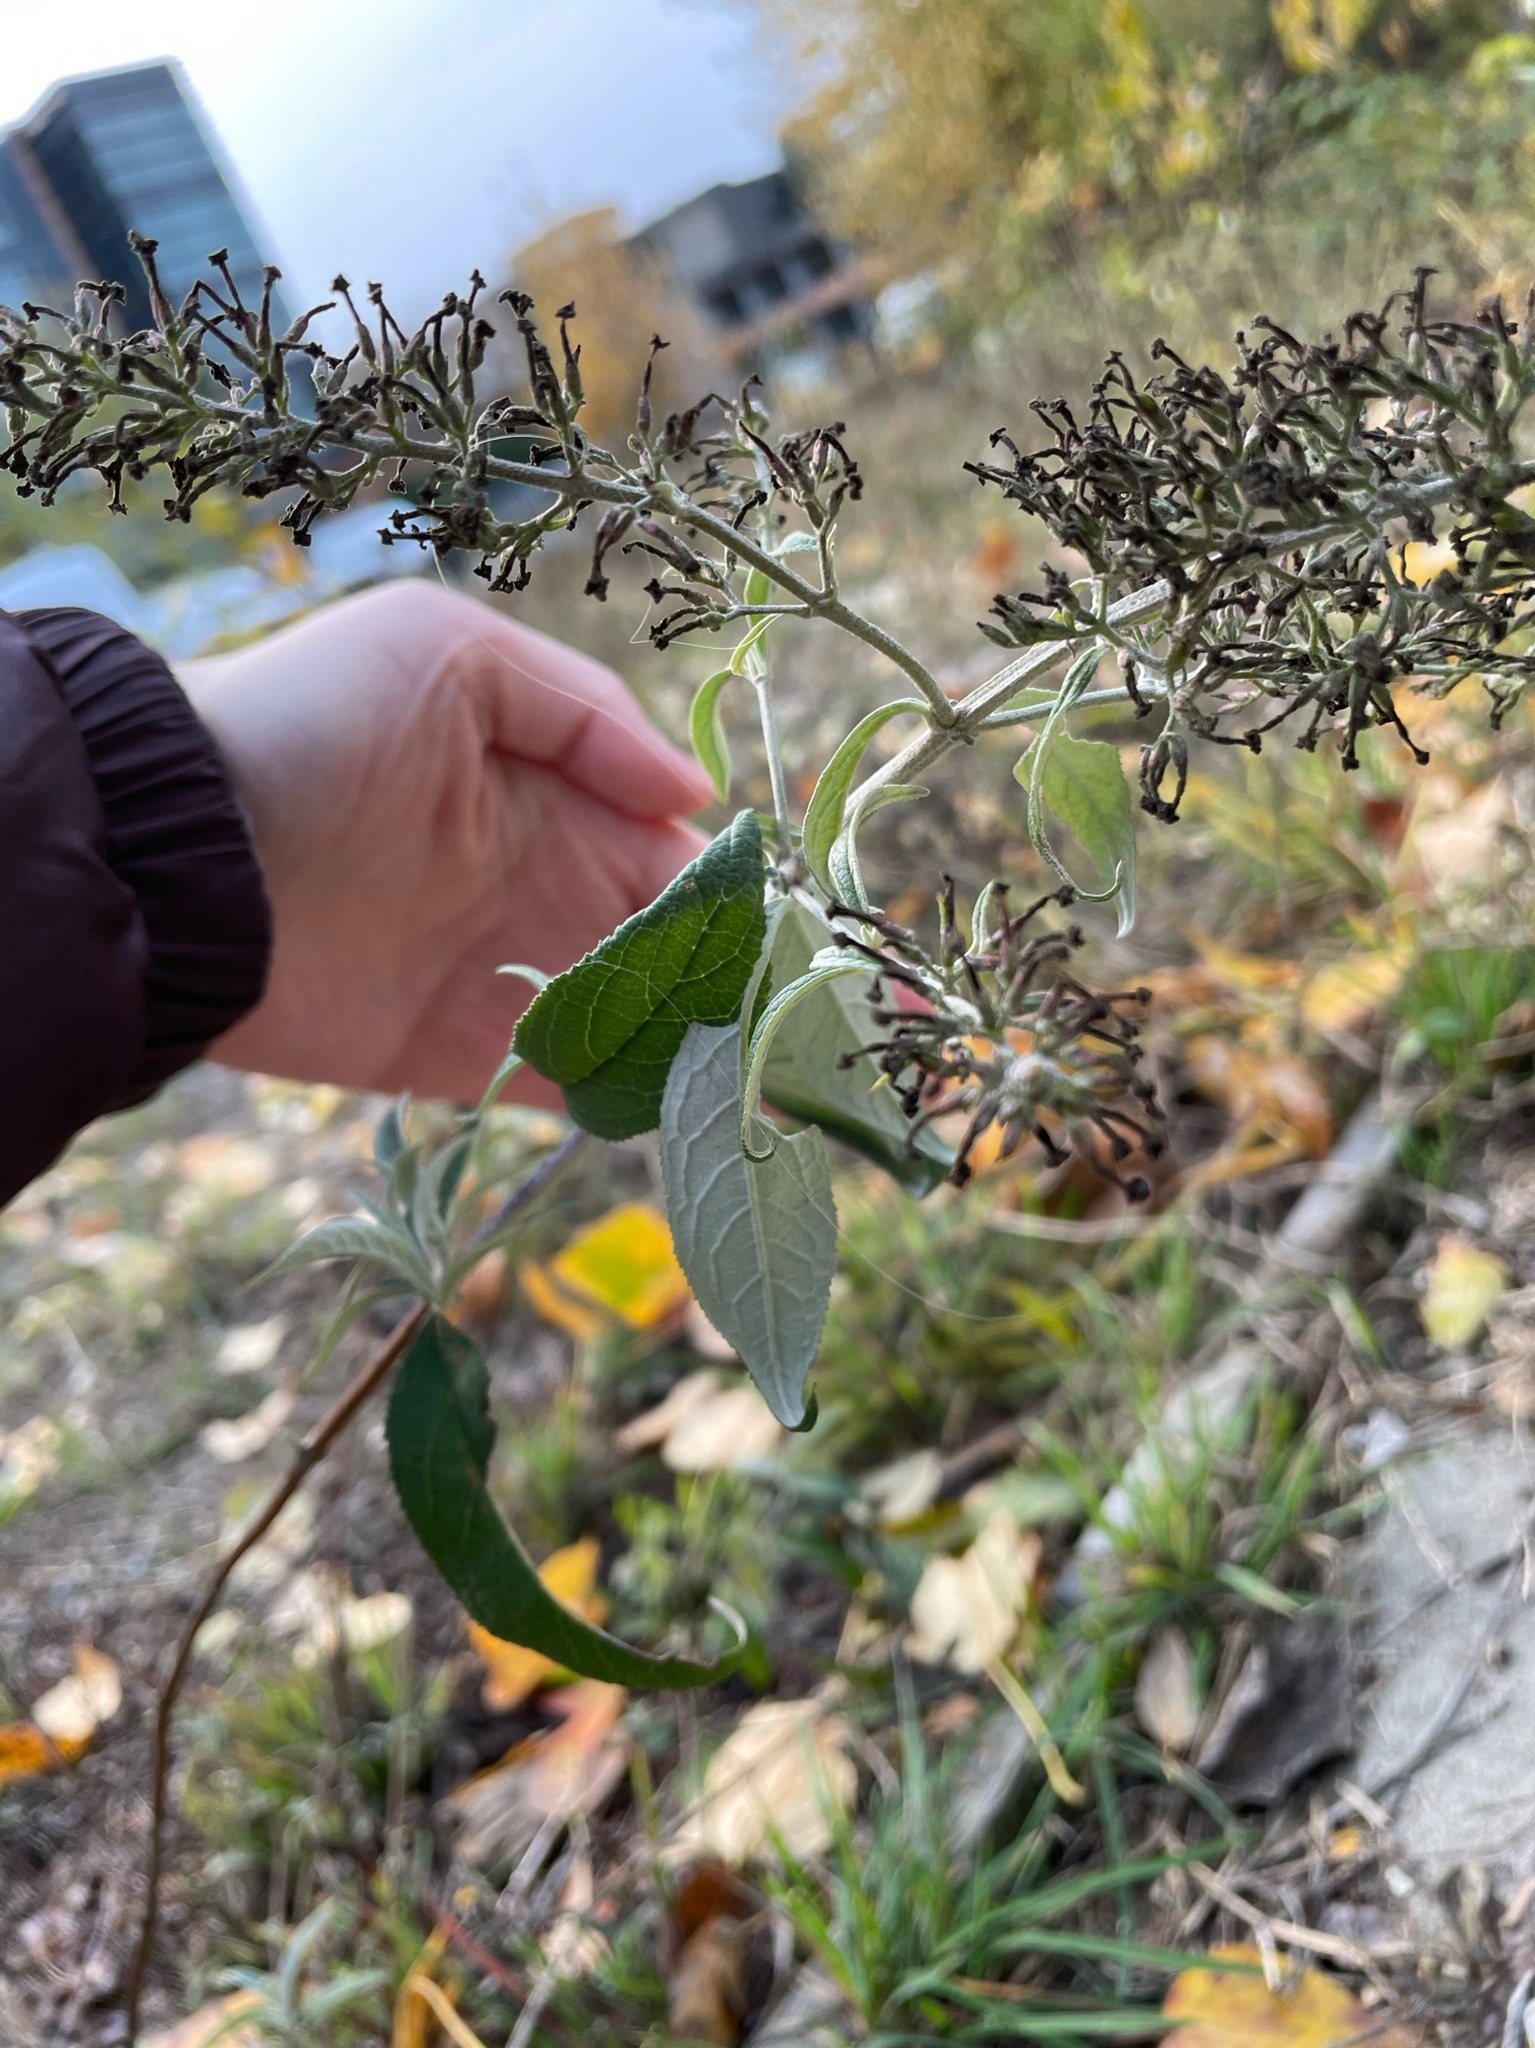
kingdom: Plantae
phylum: Tracheophyta
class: Magnoliopsida
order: Lamiales
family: Scrophulariaceae
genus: Buddleja
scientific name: Buddleja davidii
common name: Butterfly-bush
